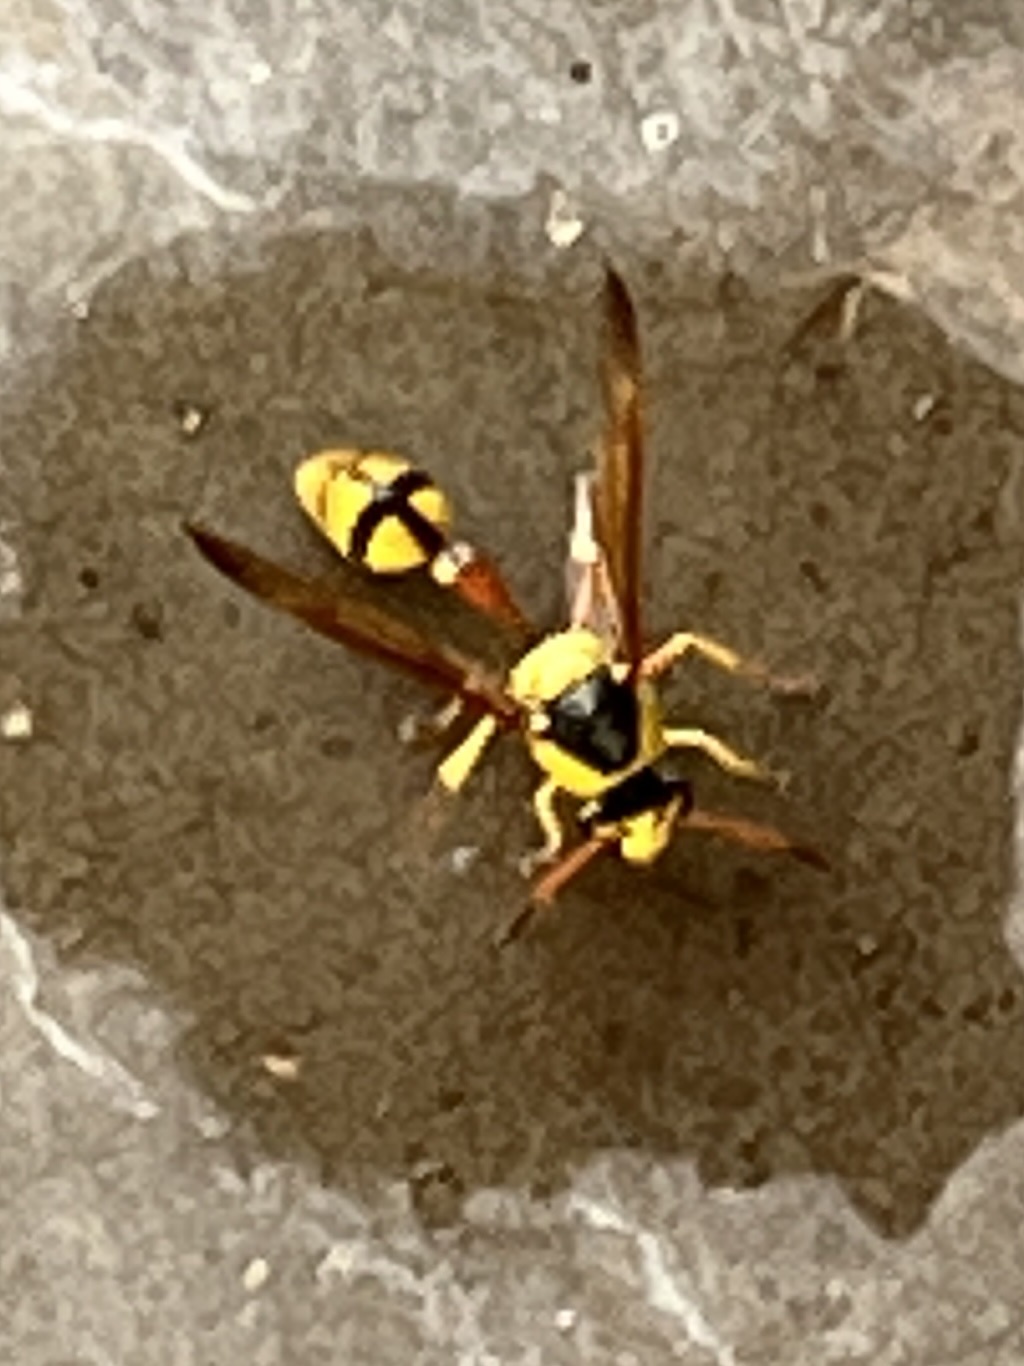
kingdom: Animalia
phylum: Arthropoda
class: Insecta
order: Hymenoptera
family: Eumenidae
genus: Delta
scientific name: Delta lepeleterii
